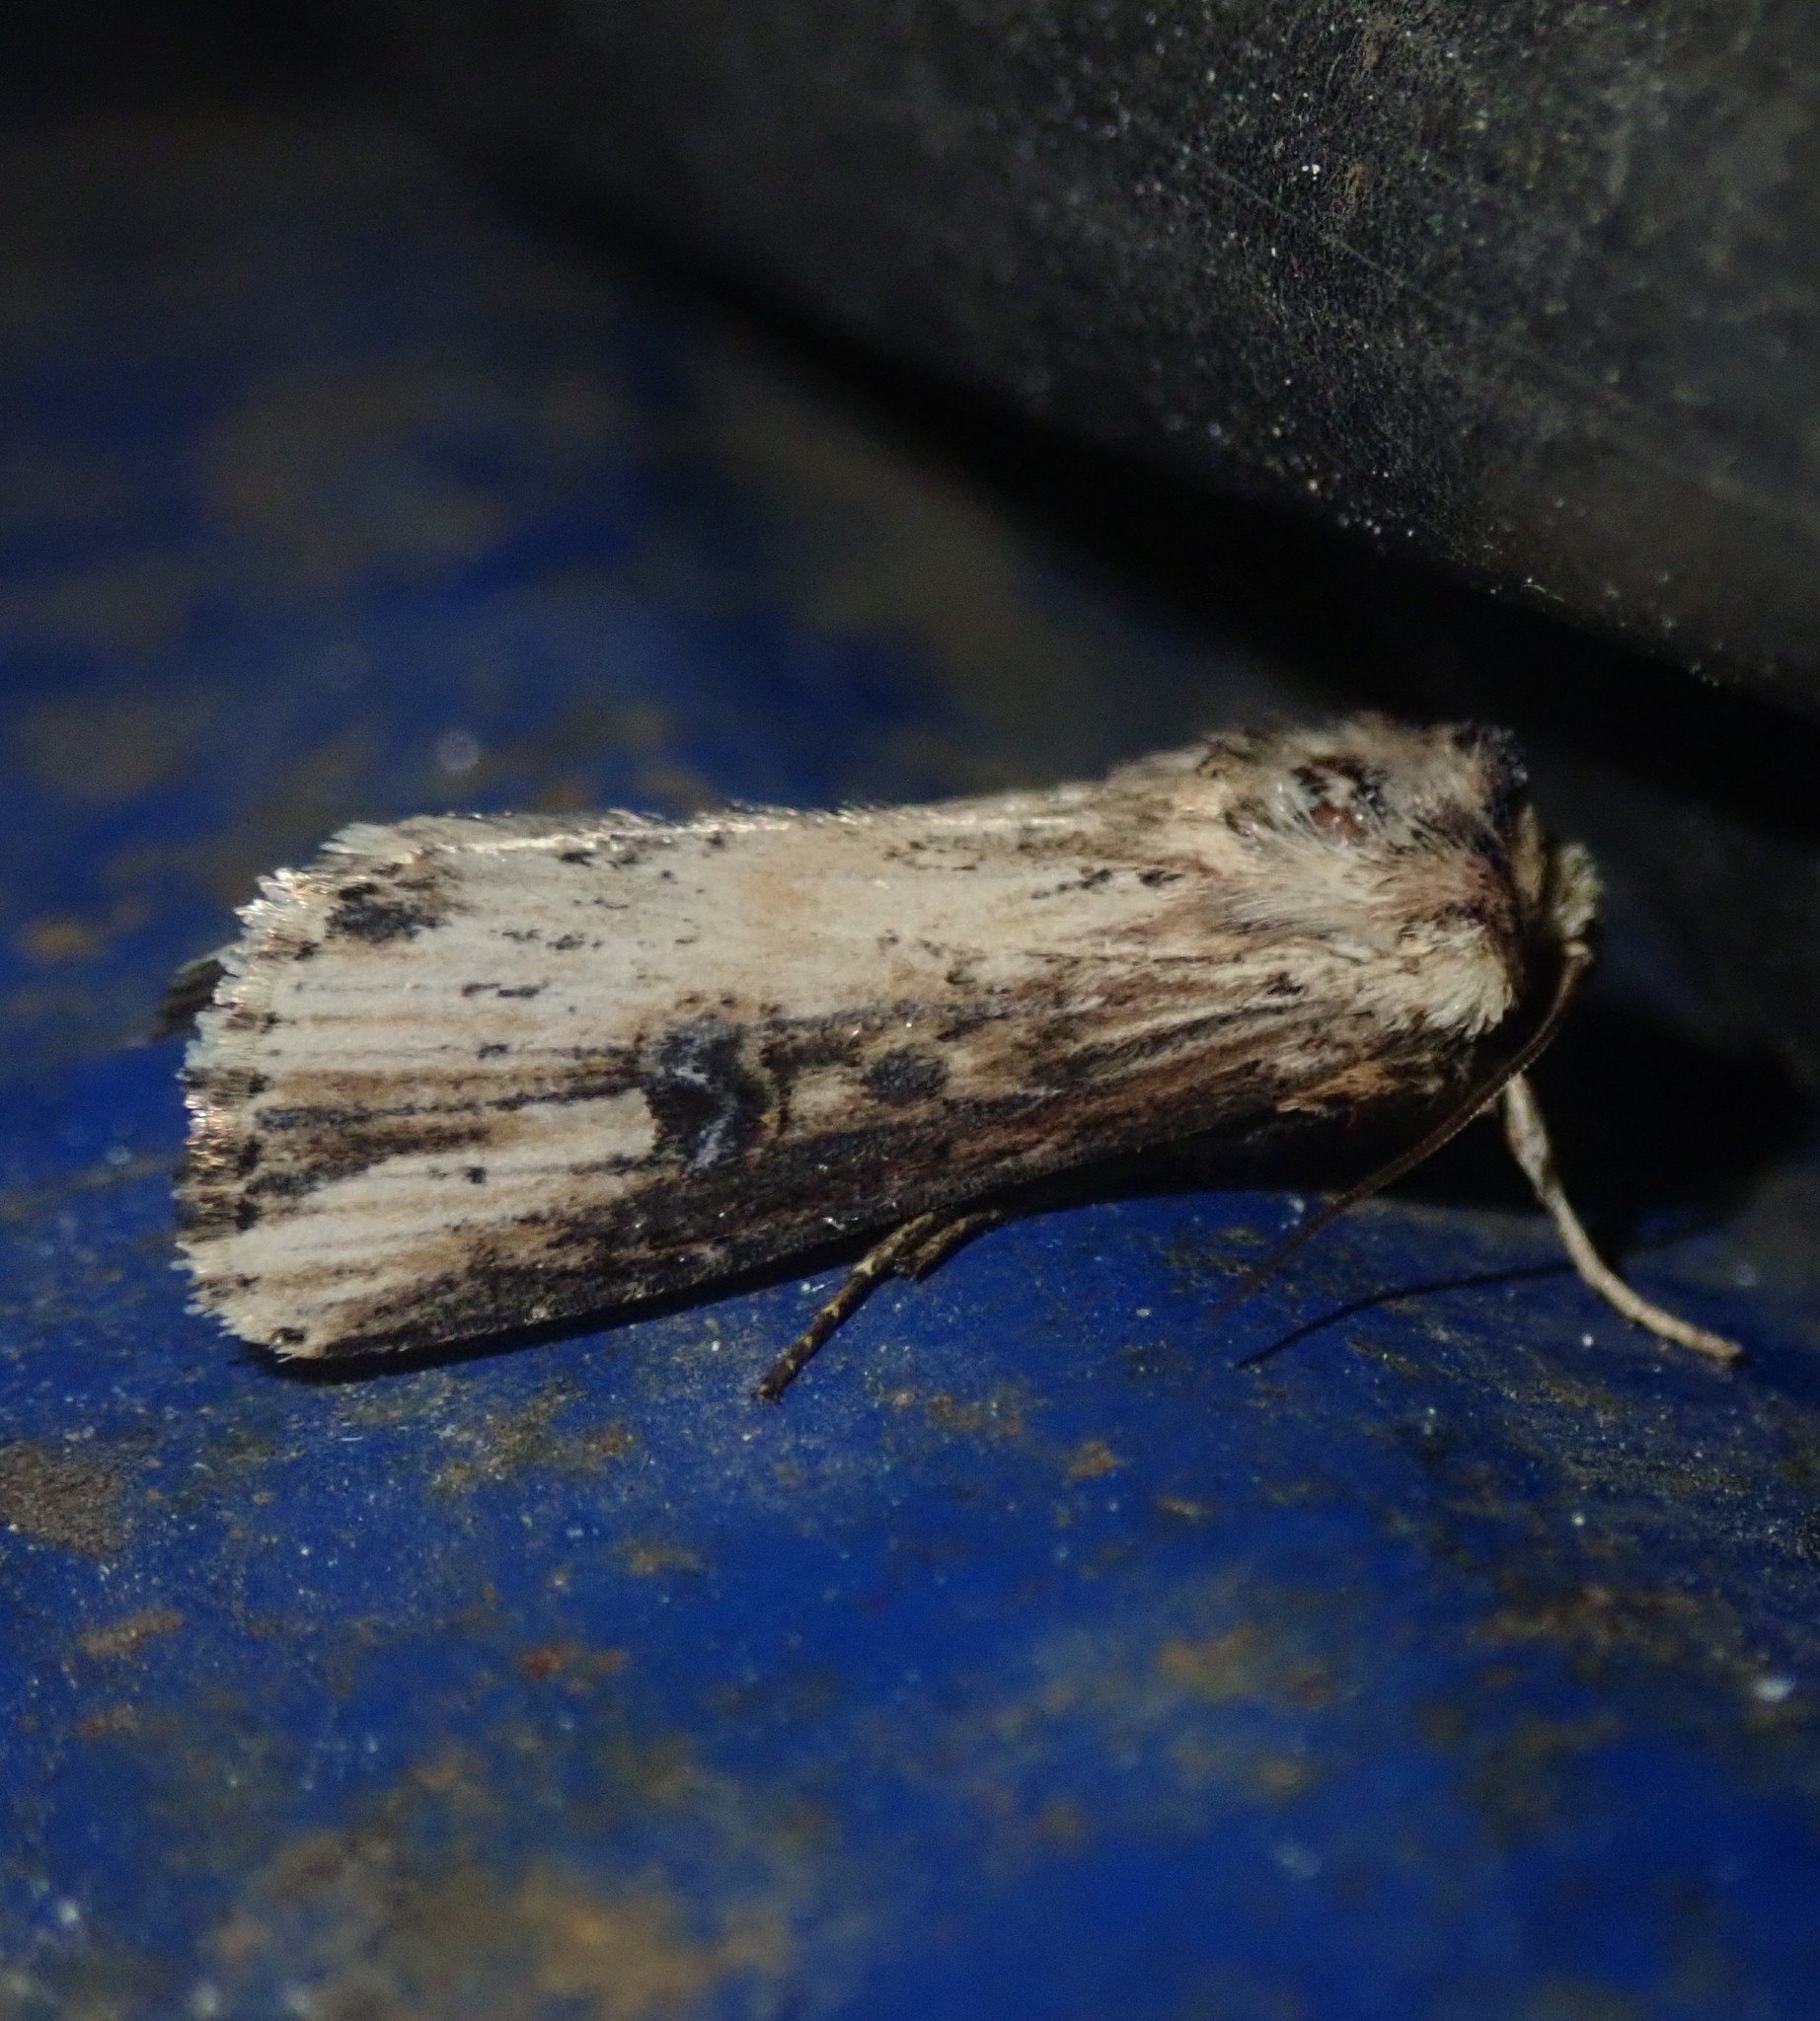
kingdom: Animalia
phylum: Arthropoda
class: Insecta
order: Lepidoptera
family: Noctuidae
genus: Axylia
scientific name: Axylia putris
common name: Flame
